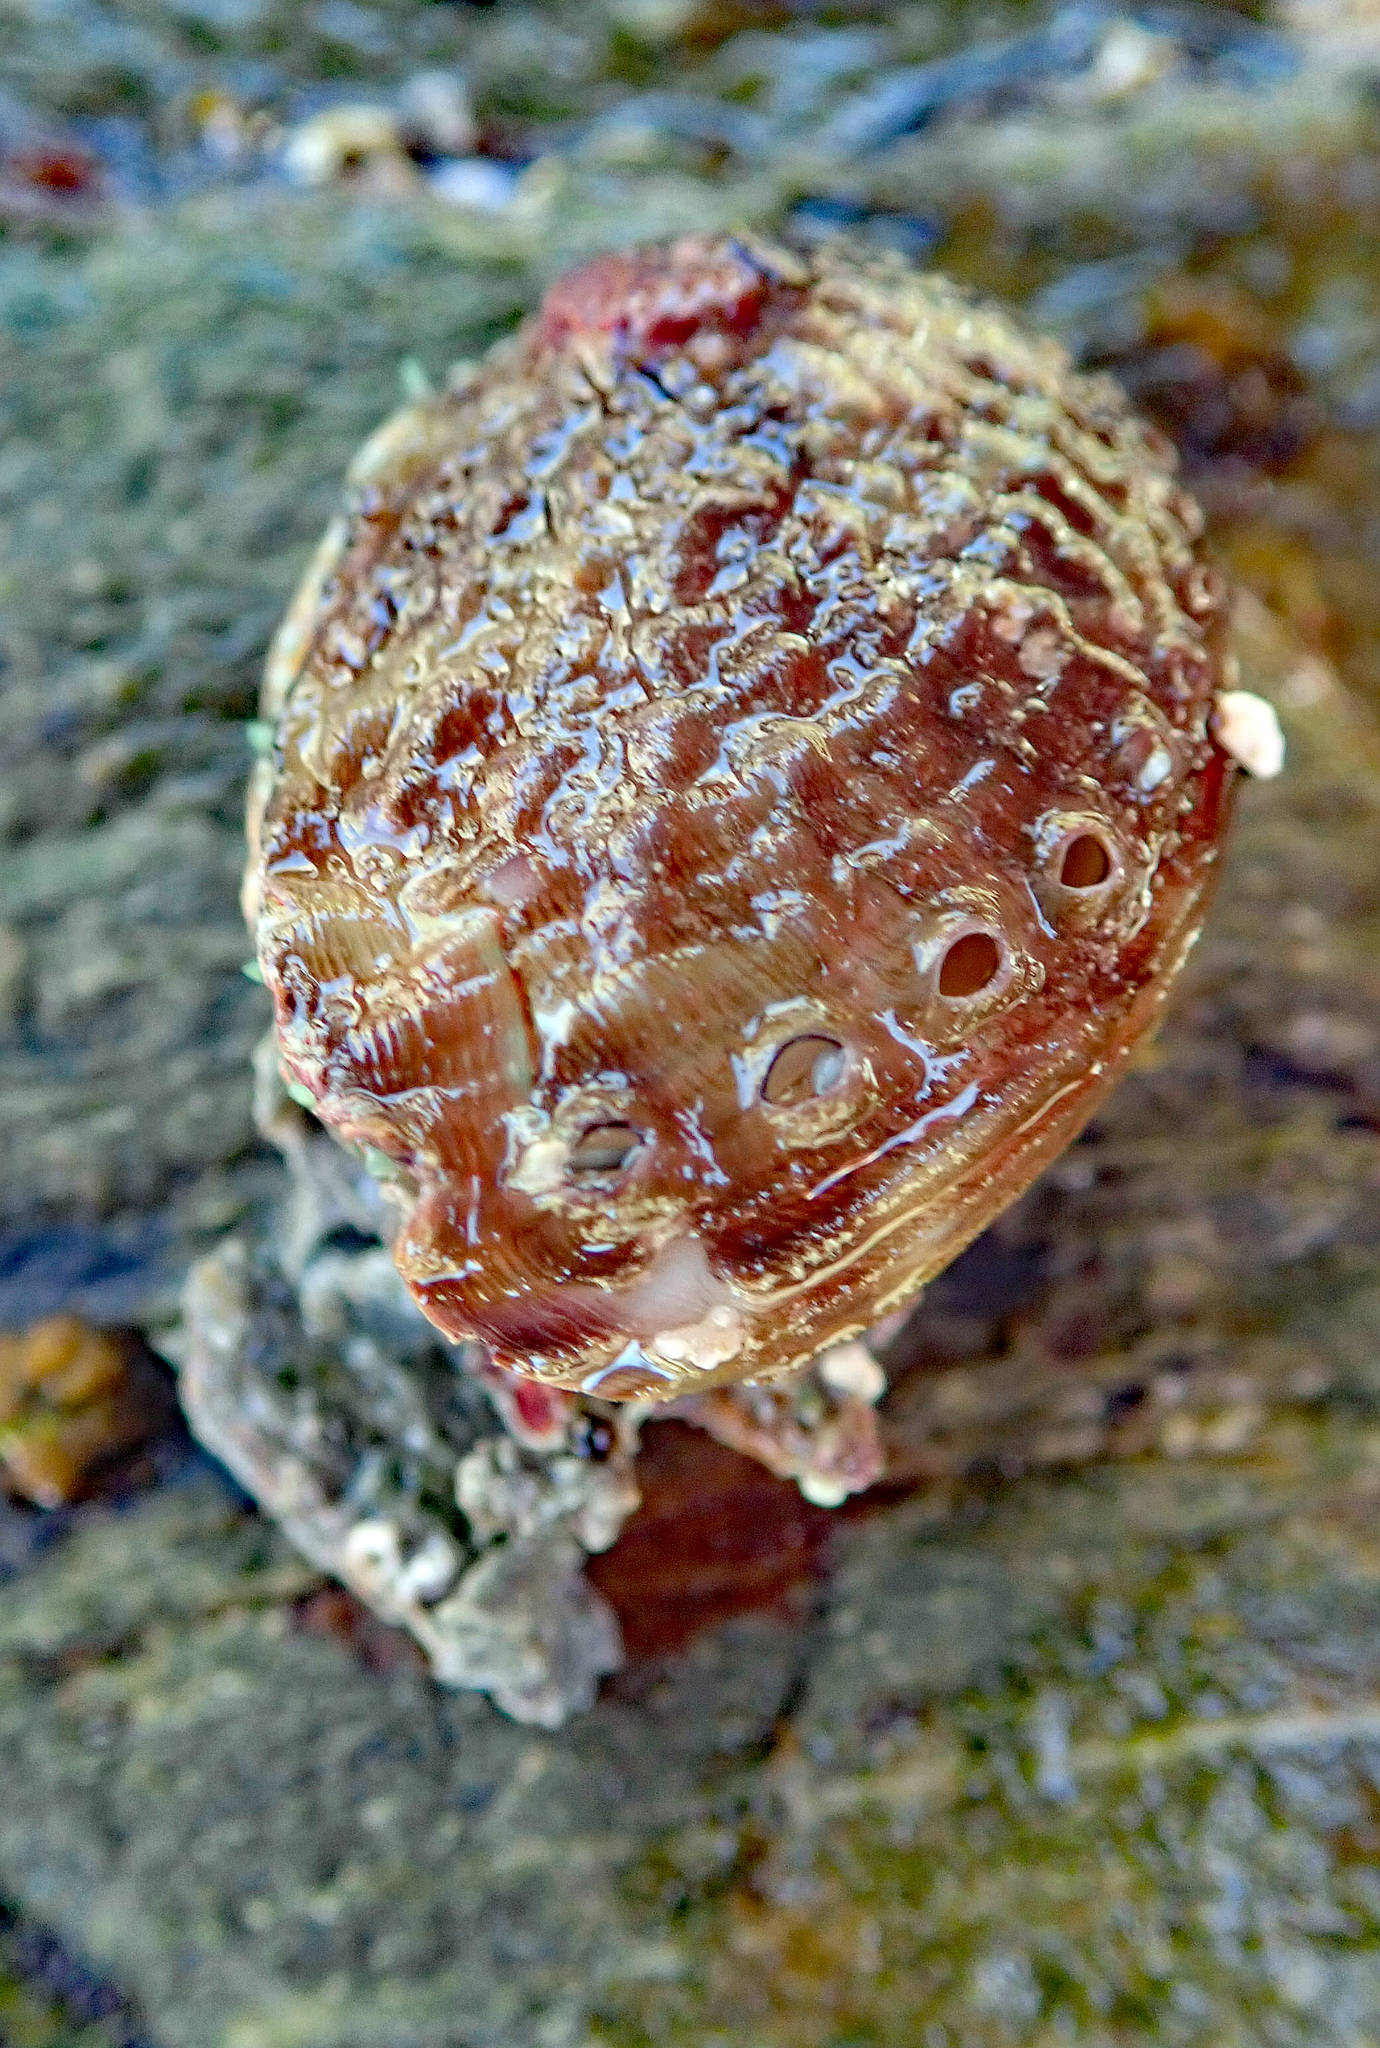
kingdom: Animalia
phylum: Mollusca
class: Gastropoda
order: Lepetellida
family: Haliotidae
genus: Haliotis
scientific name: Haliotis australis
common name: Silver abalone
